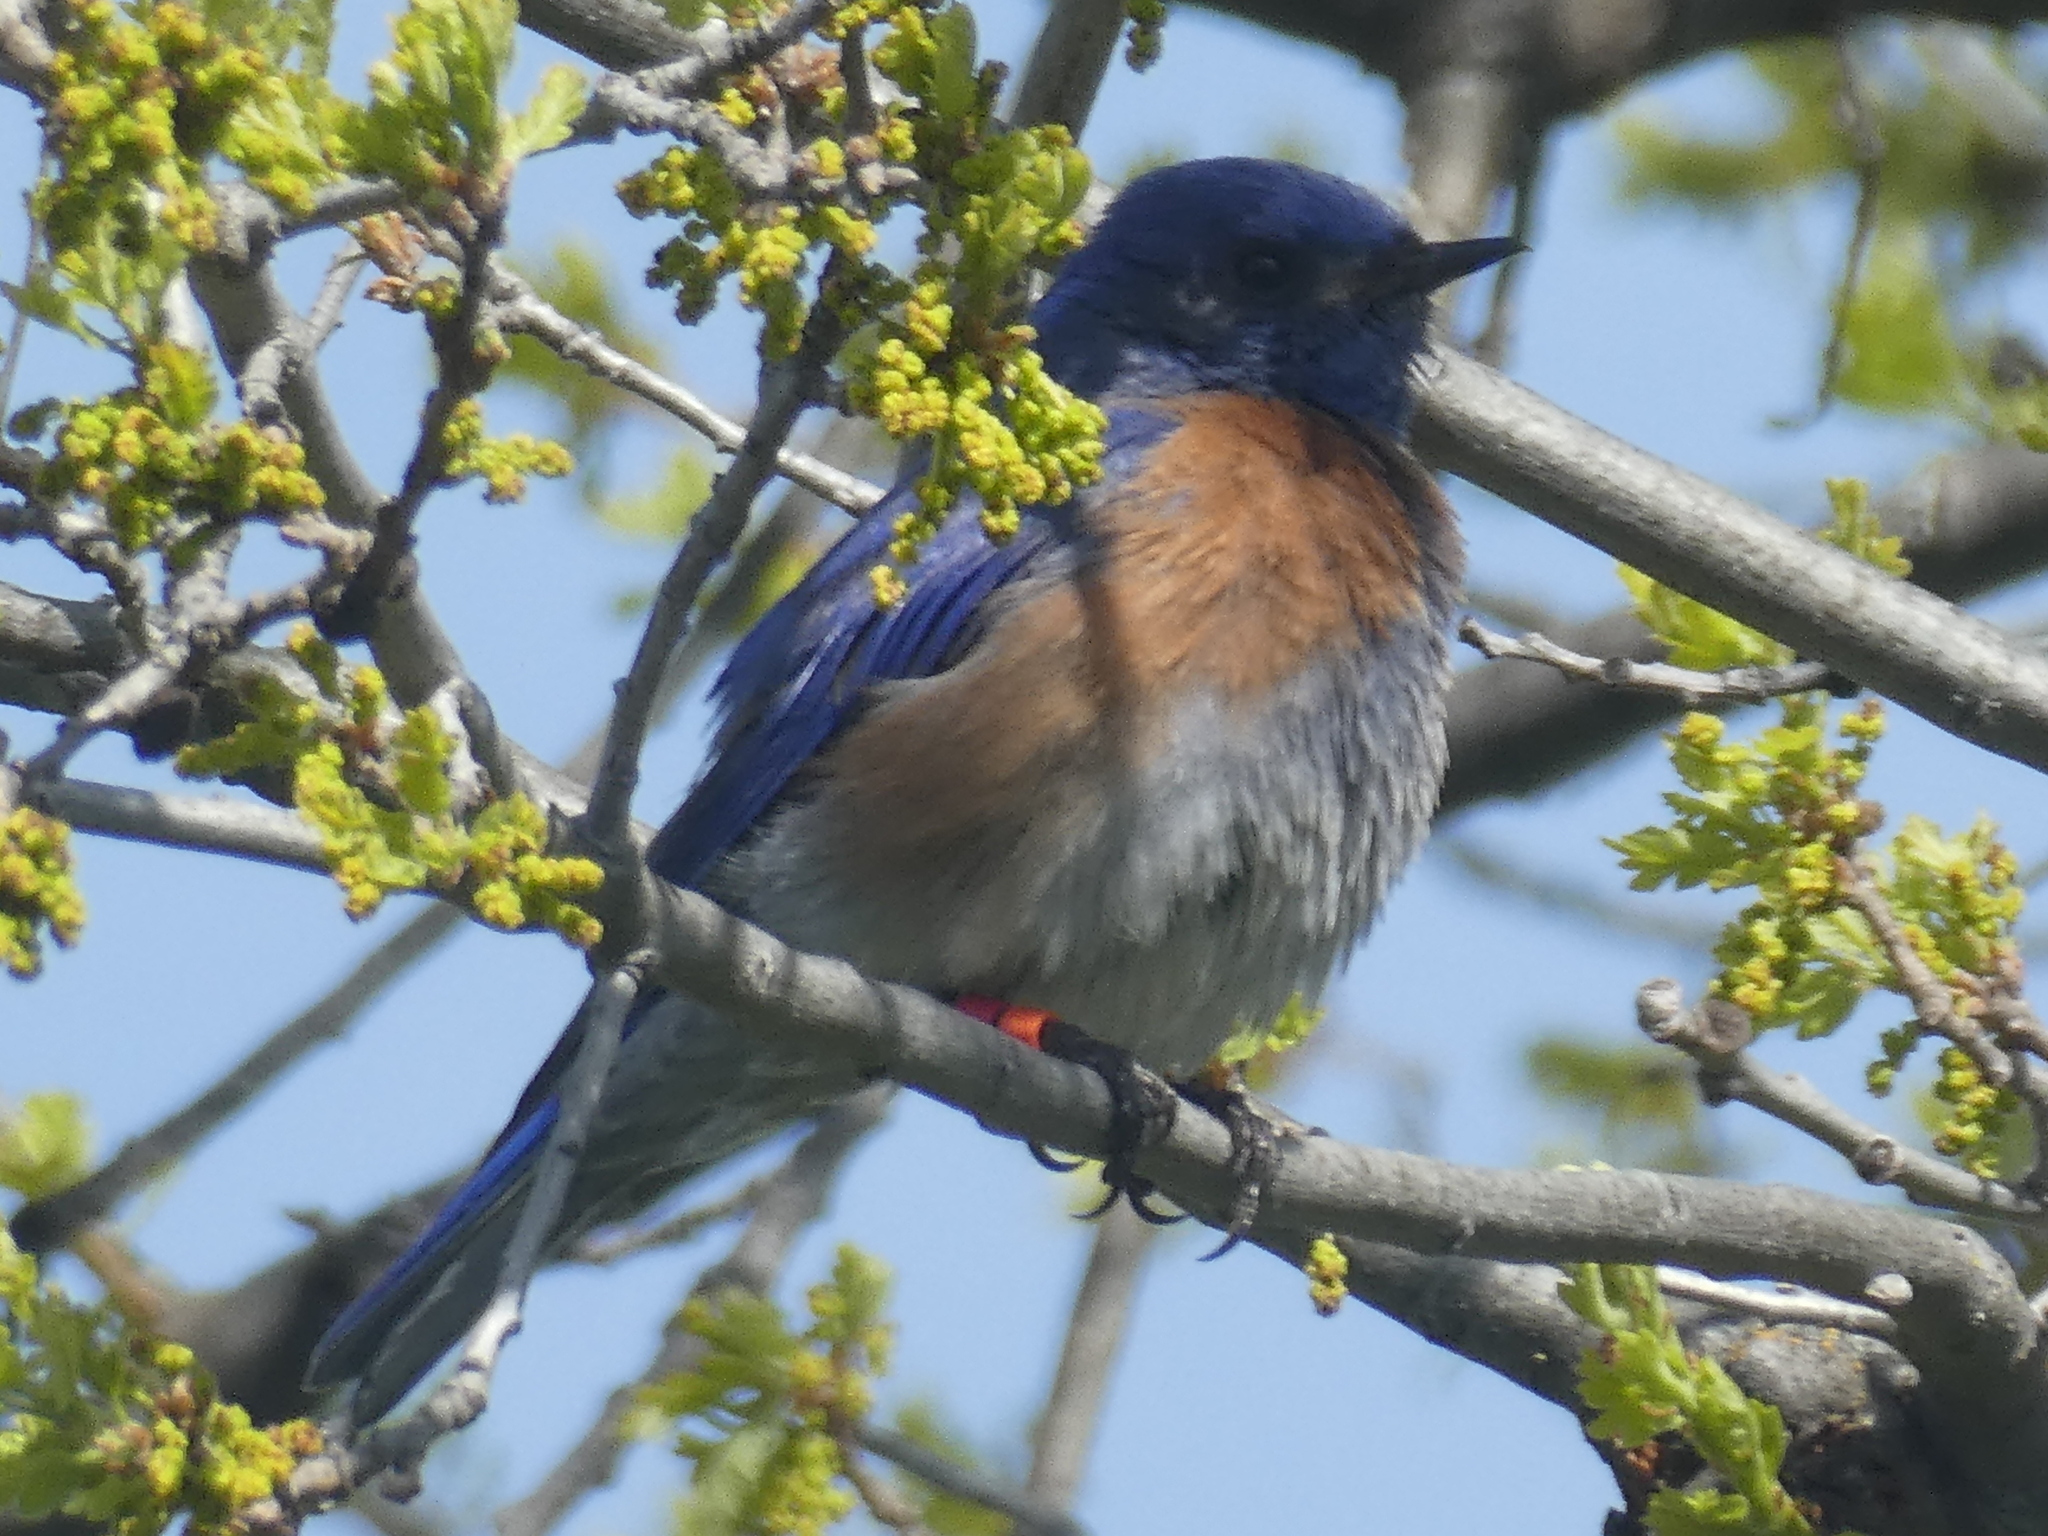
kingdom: Animalia
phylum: Chordata
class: Aves
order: Passeriformes
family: Turdidae
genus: Sialia
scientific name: Sialia mexicana
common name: Western bluebird
